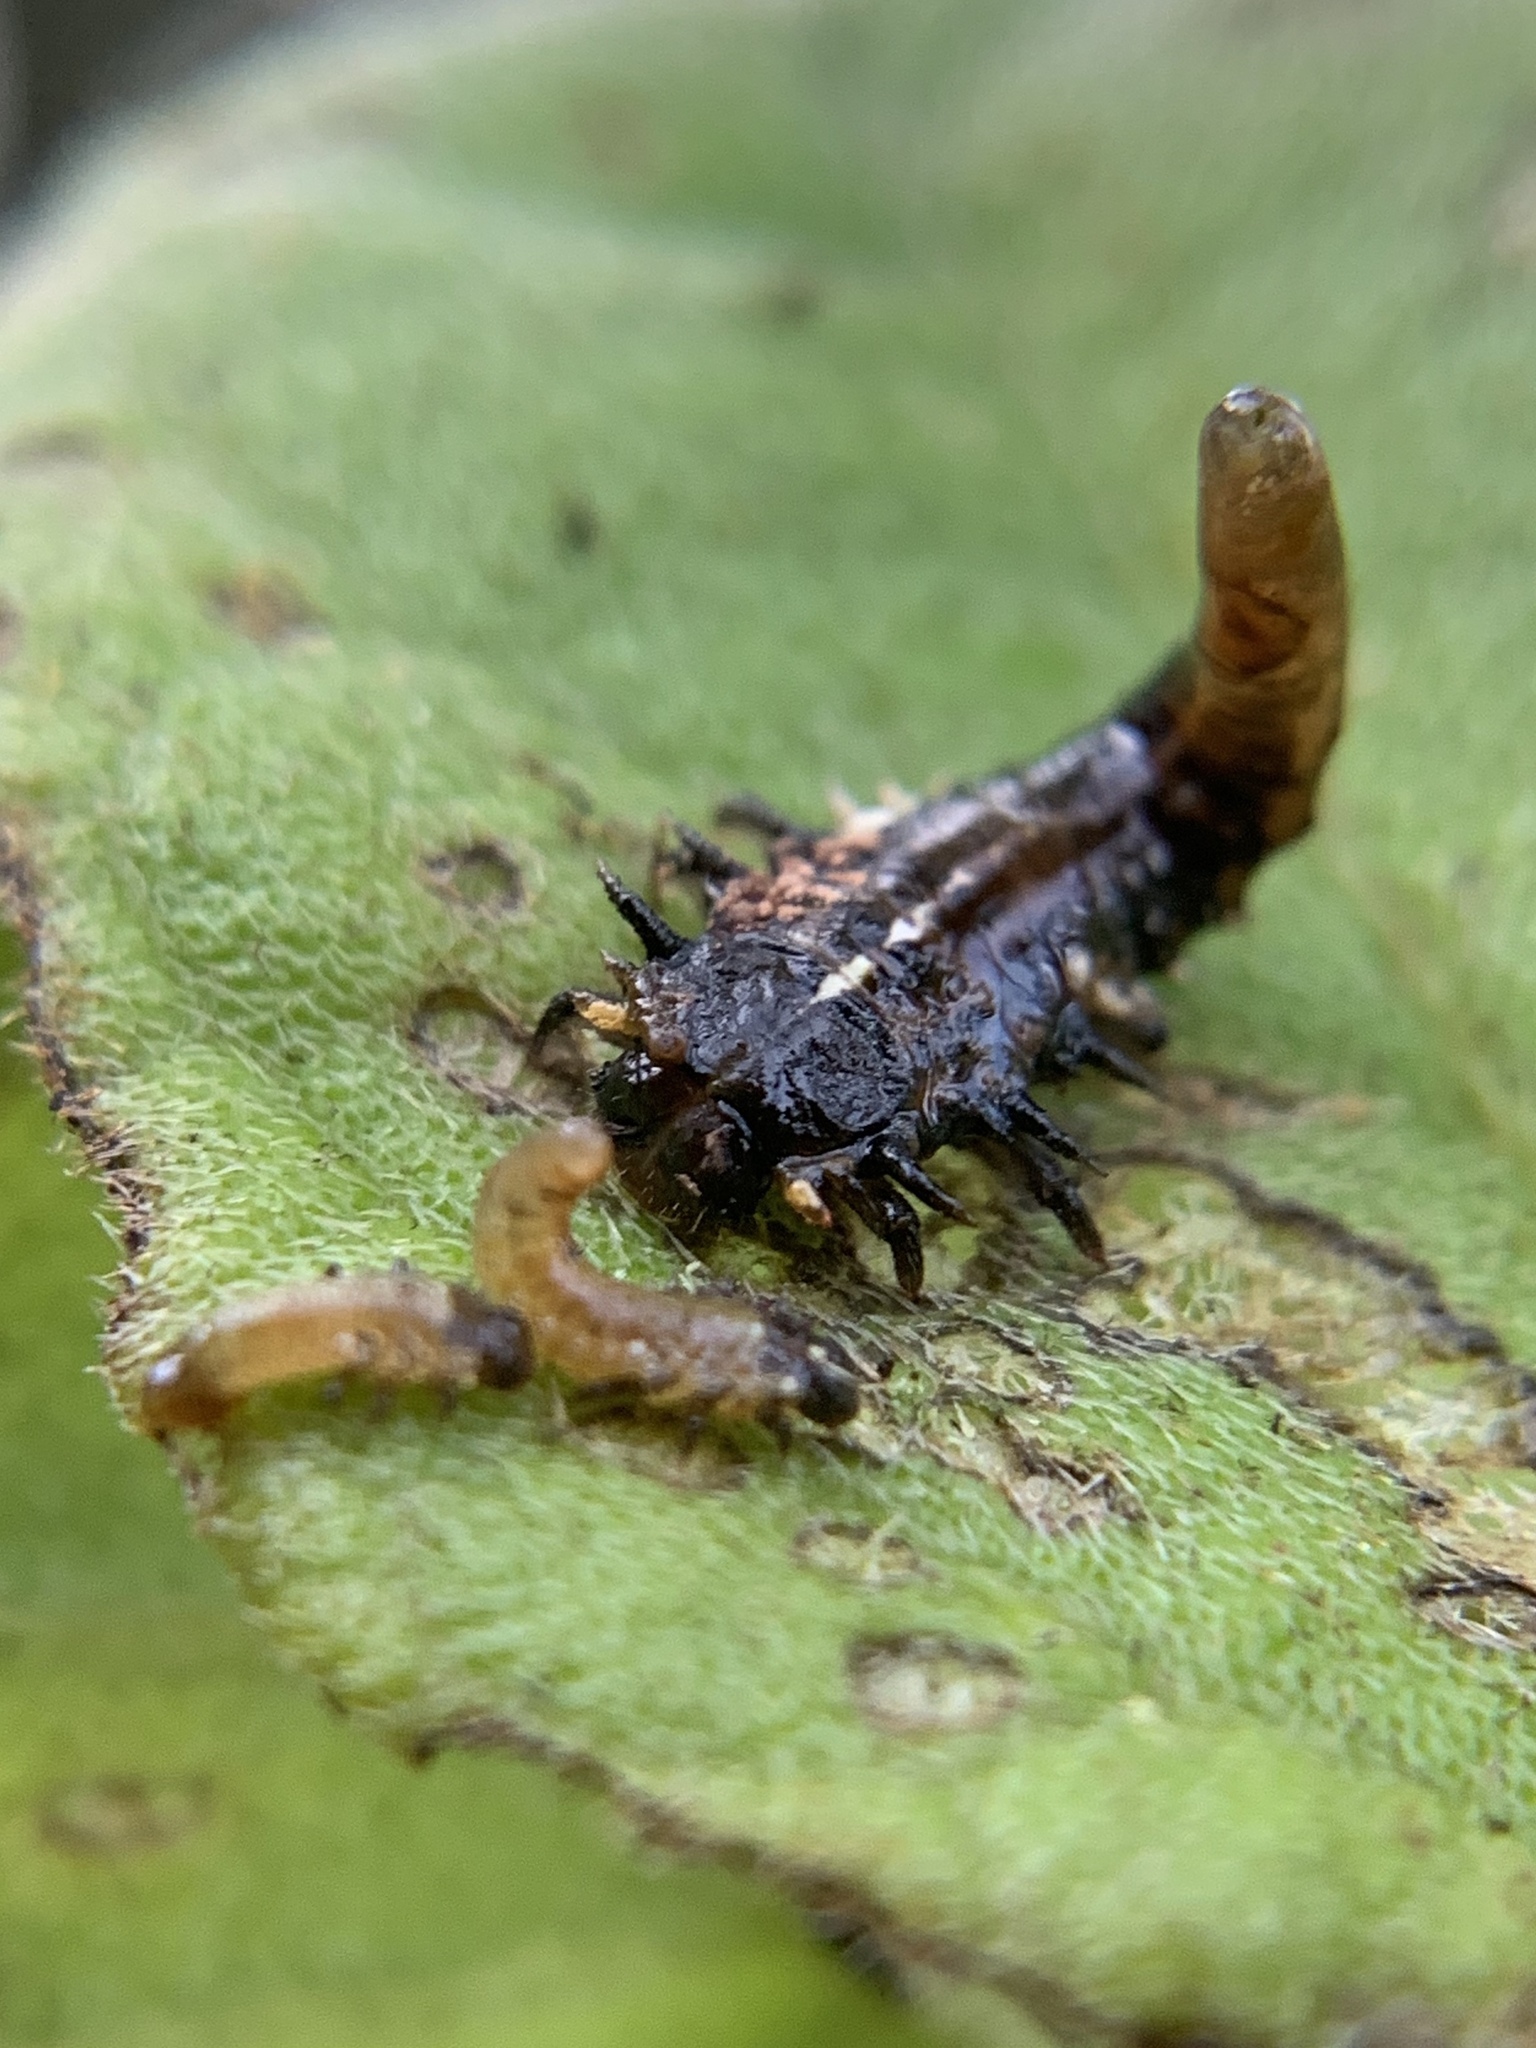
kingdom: Animalia
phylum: Arthropoda
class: Insecta
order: Coleoptera
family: Chrysomelidae
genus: Eurypepla
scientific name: Eurypepla calochroma
